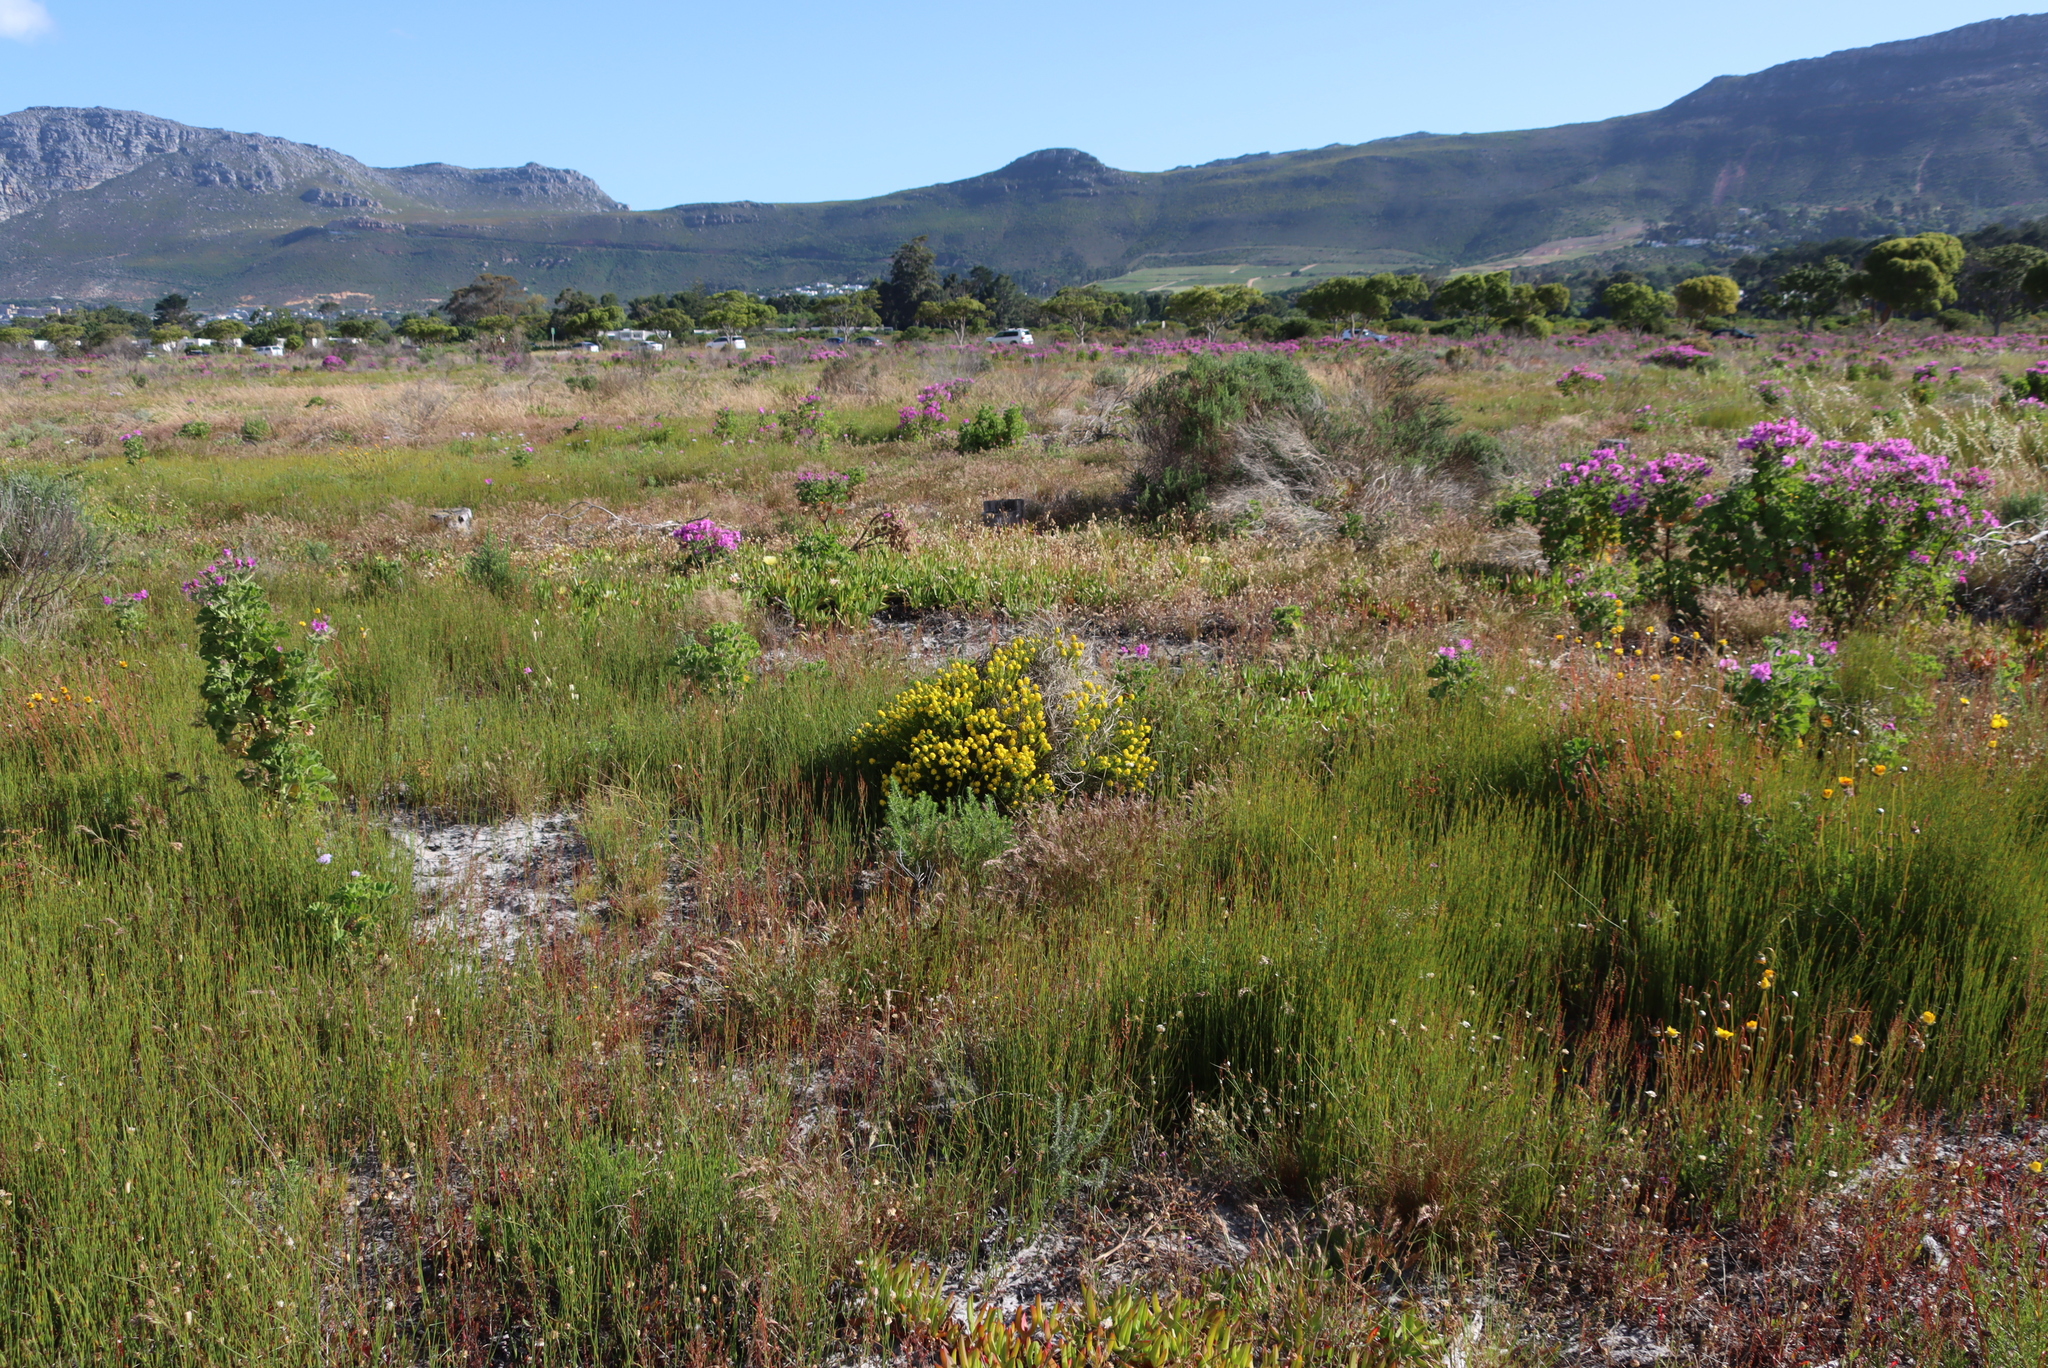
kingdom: Plantae
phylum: Tracheophyta
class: Magnoliopsida
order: Fabales
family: Fabaceae
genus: Aspalathus
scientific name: Aspalathus callosa
